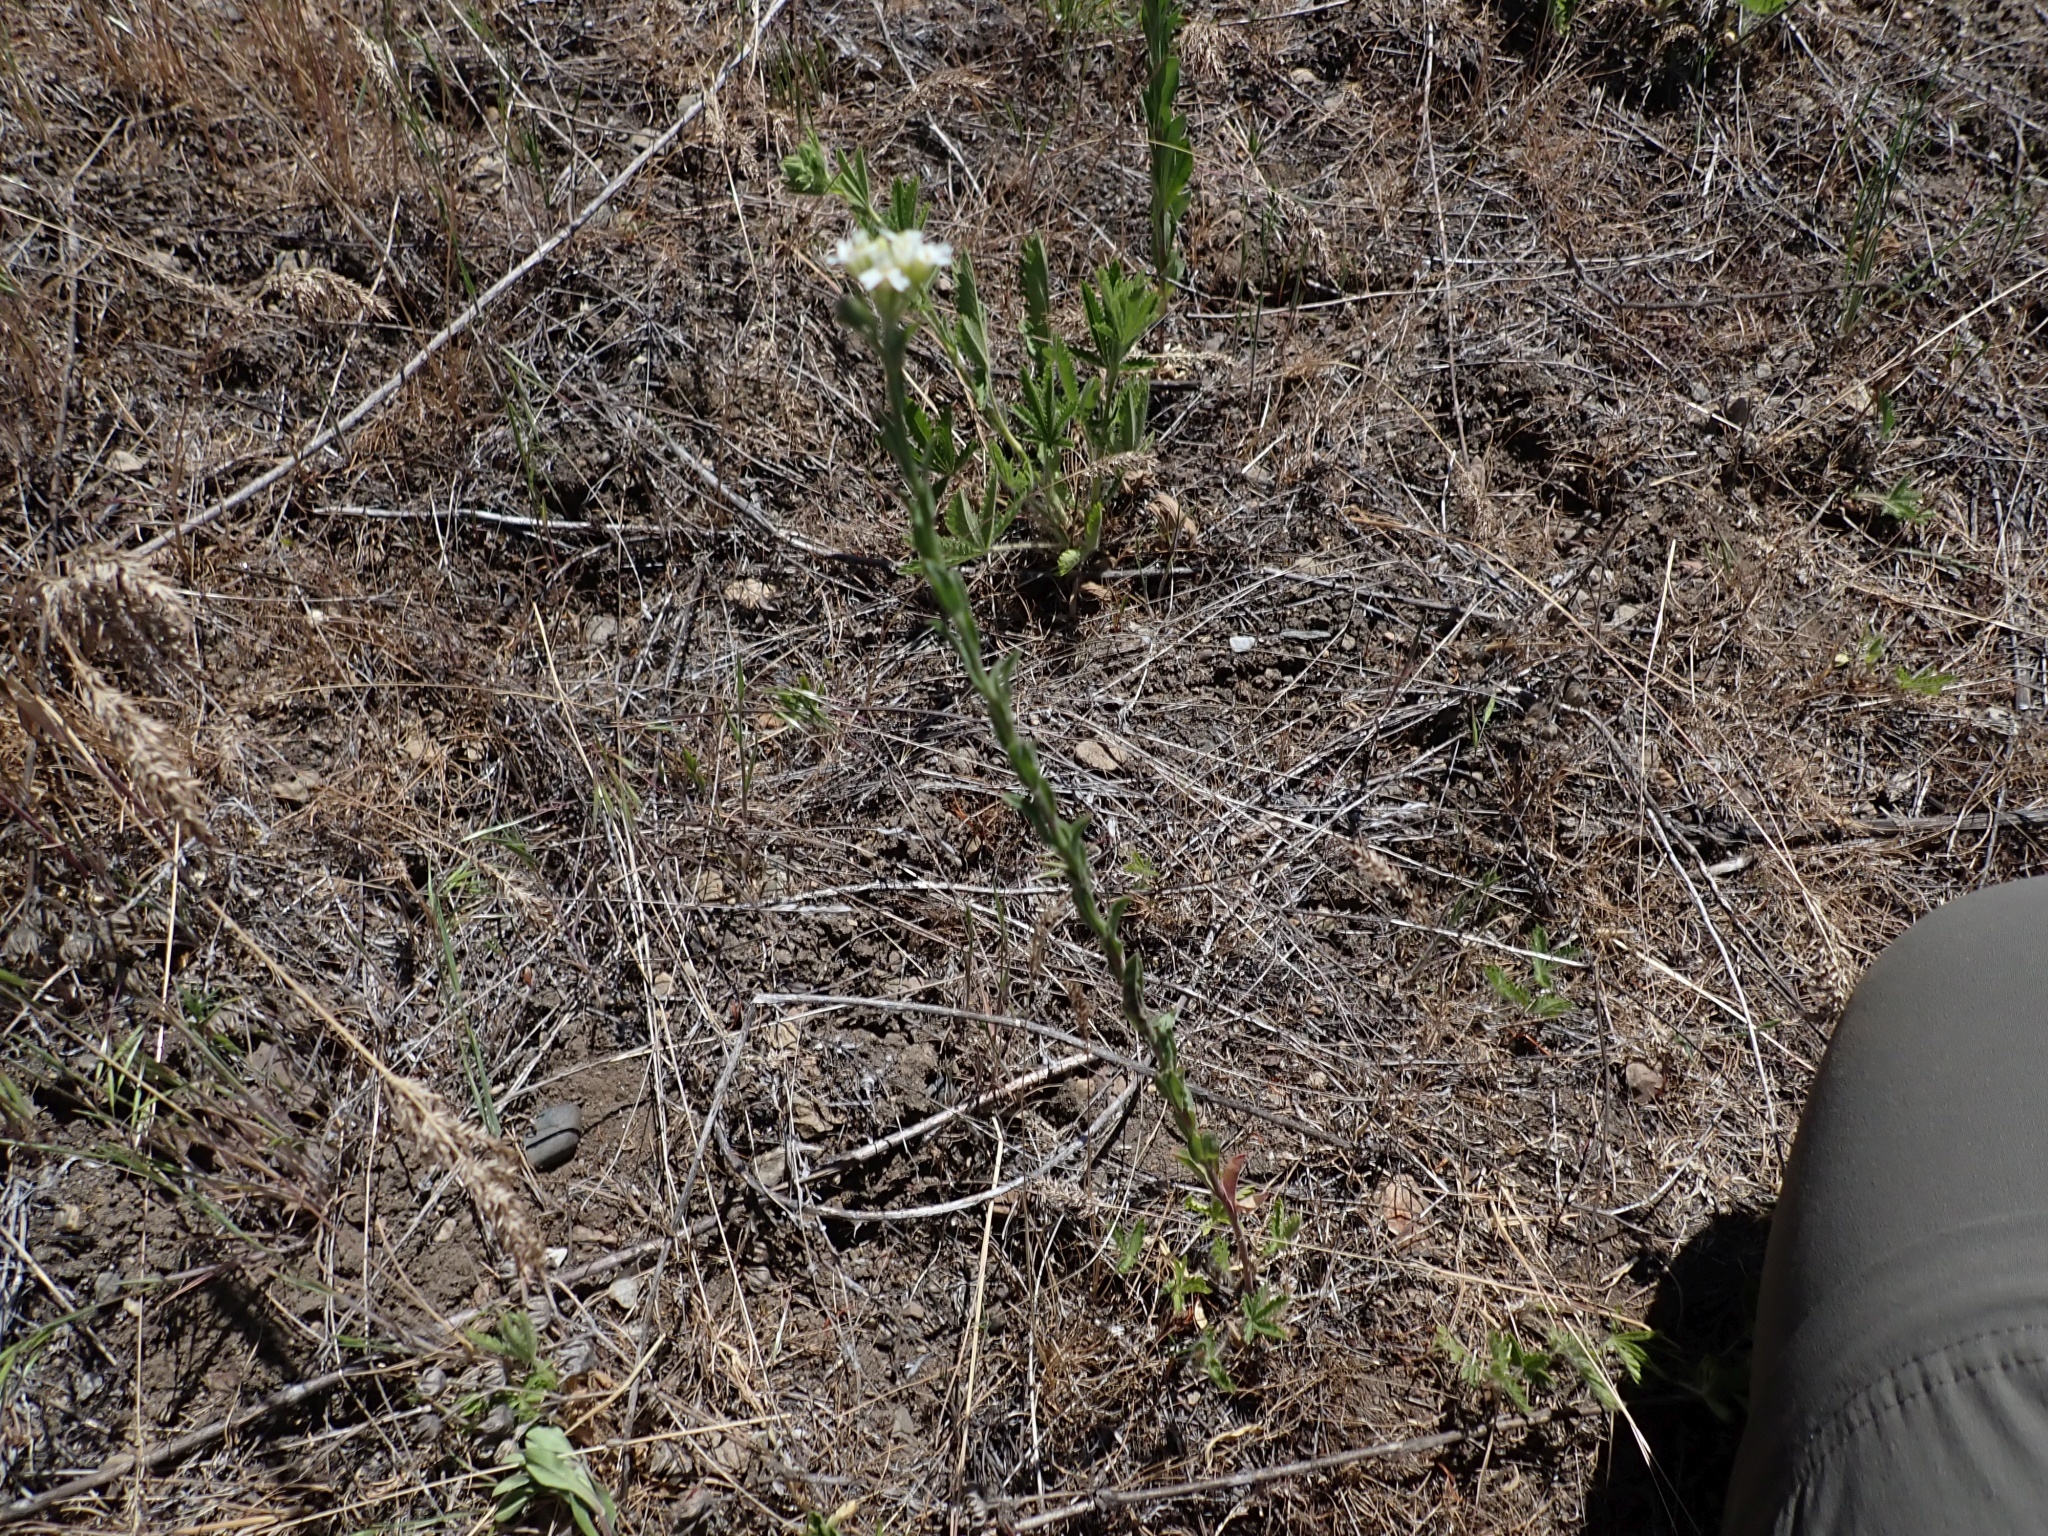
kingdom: Plantae
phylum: Tracheophyta
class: Magnoliopsida
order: Brassicales
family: Brassicaceae
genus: Berteroa
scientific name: Berteroa incana
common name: Hoary alison
